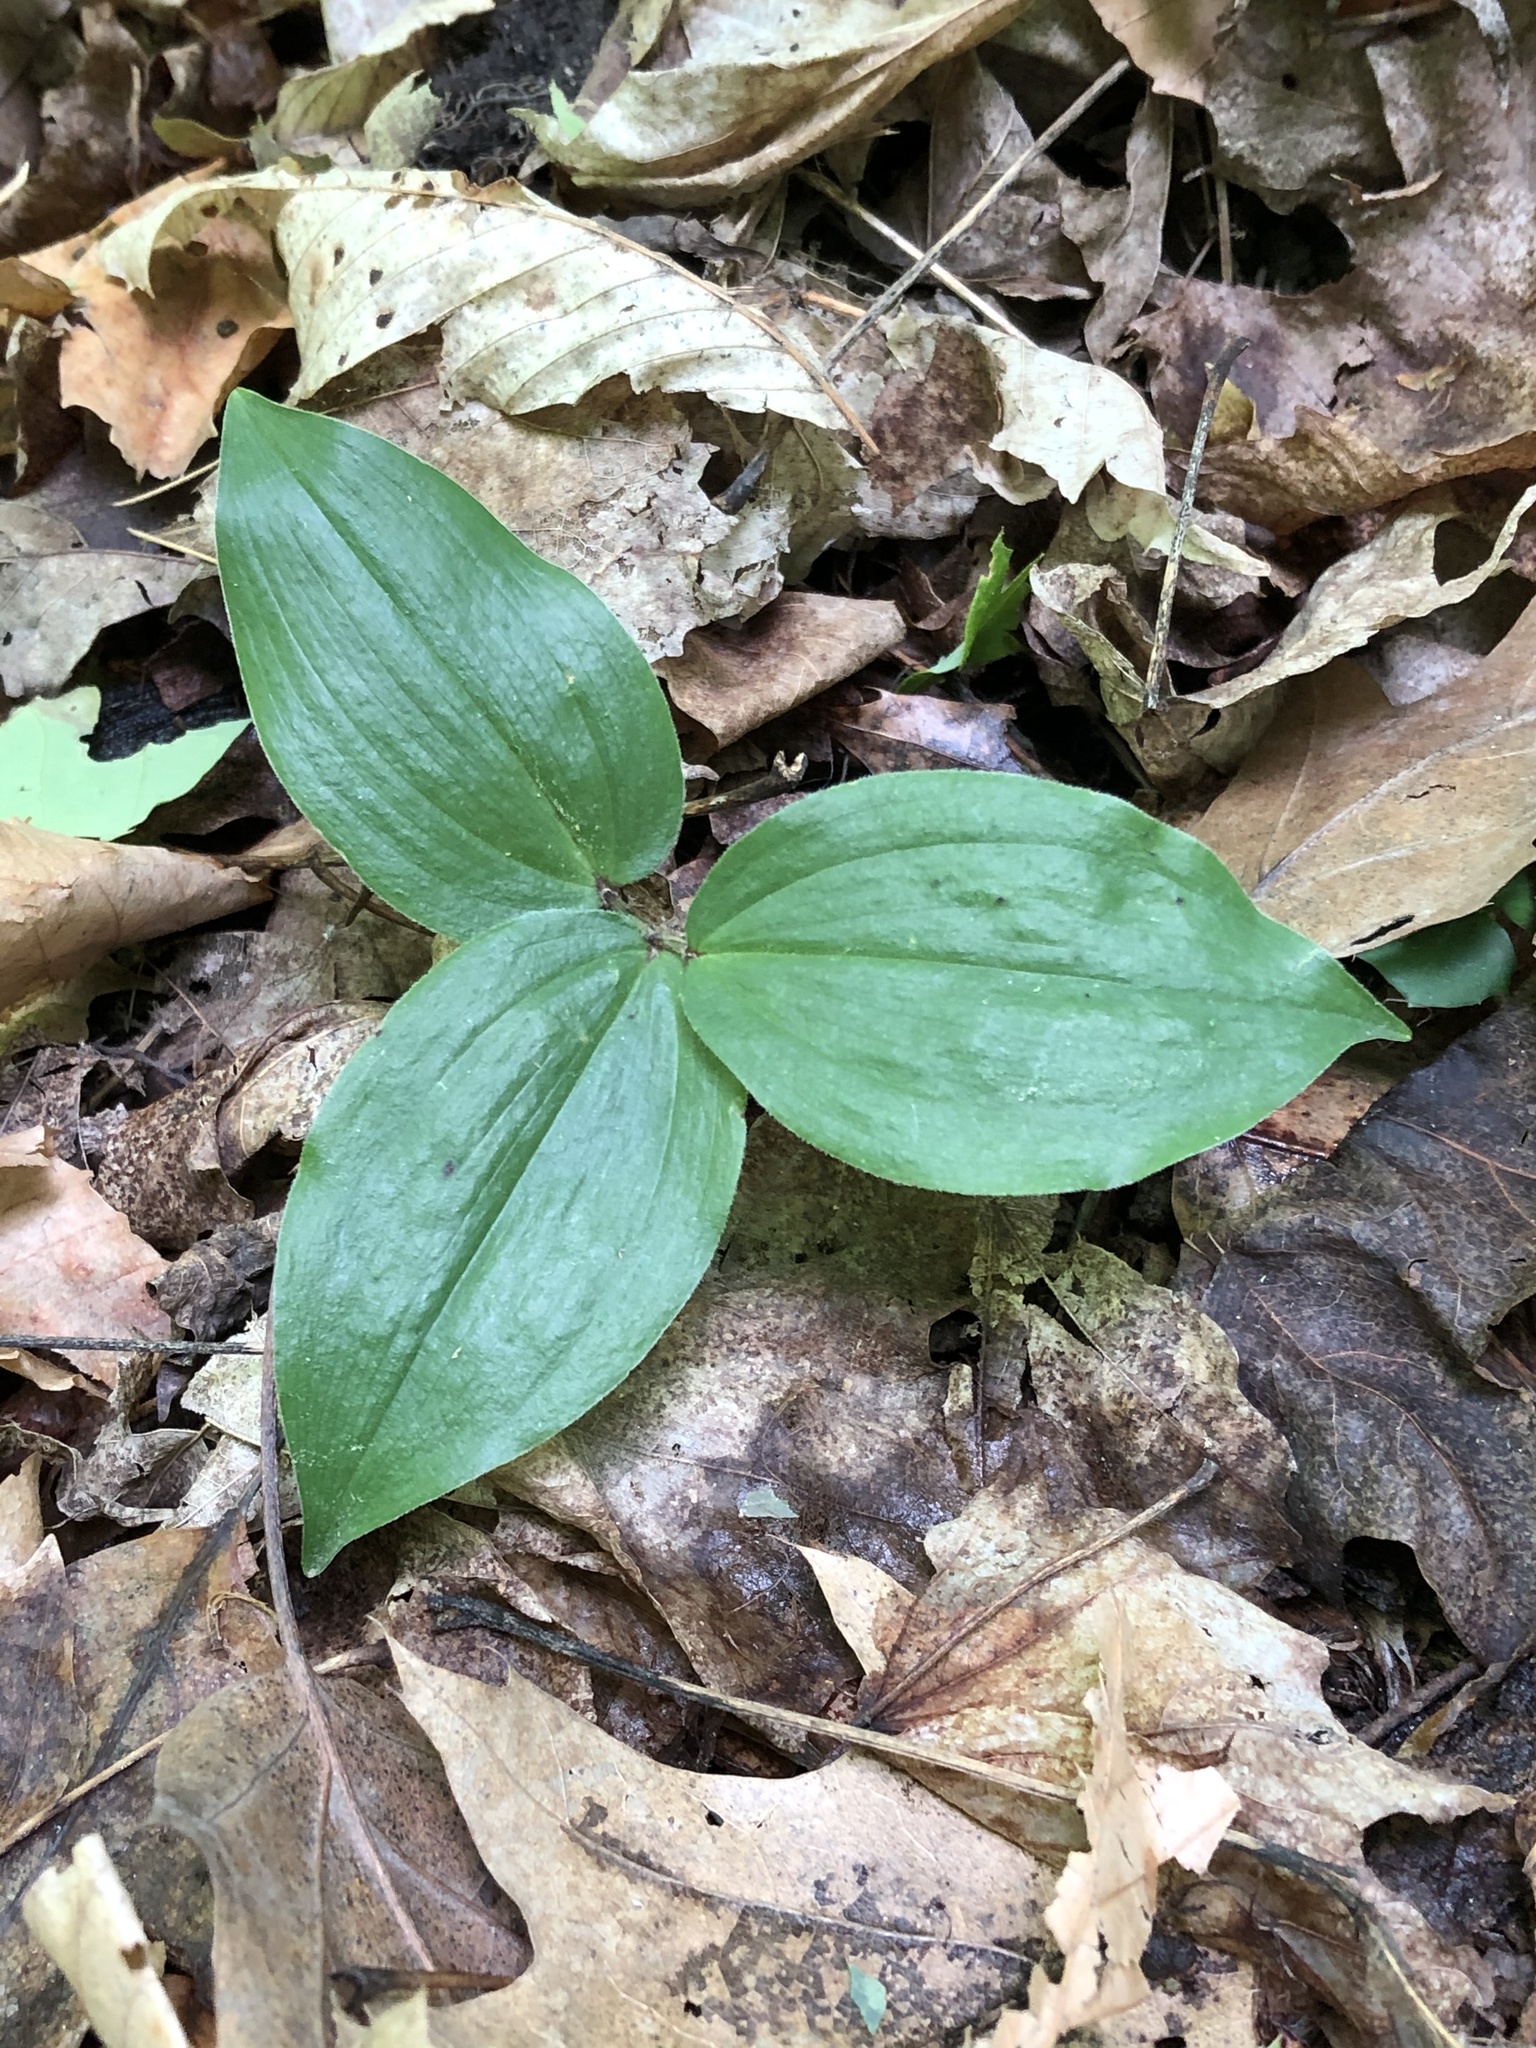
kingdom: Plantae
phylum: Tracheophyta
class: Liliopsida
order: Asparagales
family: Asparagaceae
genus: Maianthemum
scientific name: Maianthemum racemosum
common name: False spikenard
